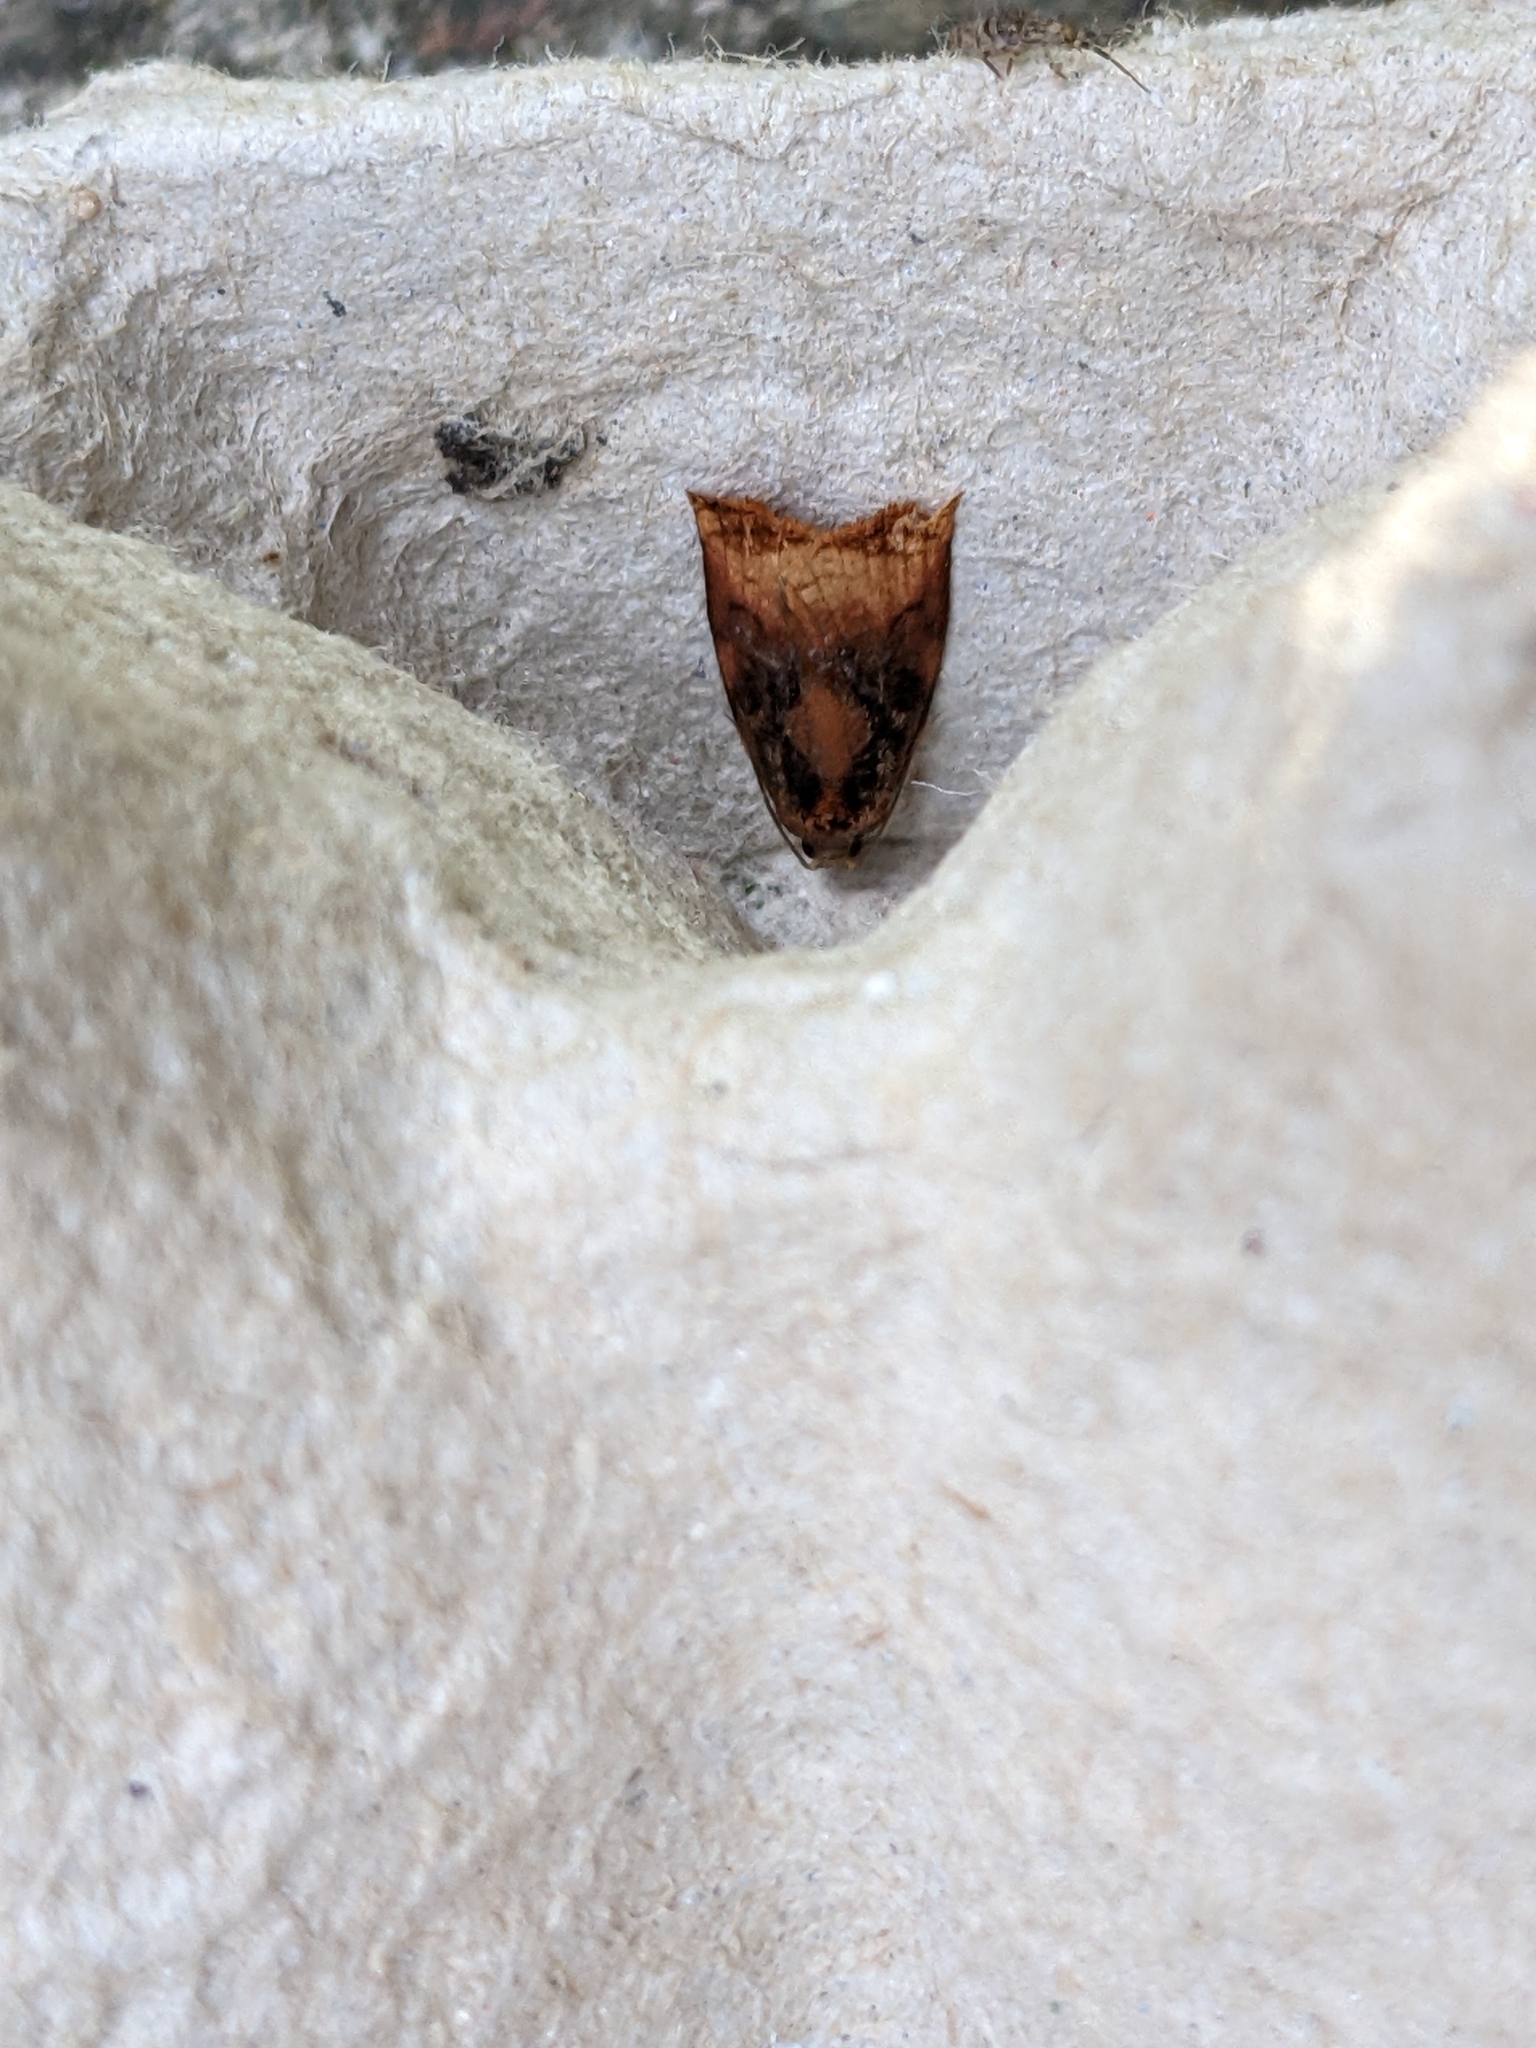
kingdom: Animalia
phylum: Arthropoda
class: Insecta
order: Lepidoptera
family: Tortricidae
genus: Archips
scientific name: Archips podana
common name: Large fruit-tree tortrix
